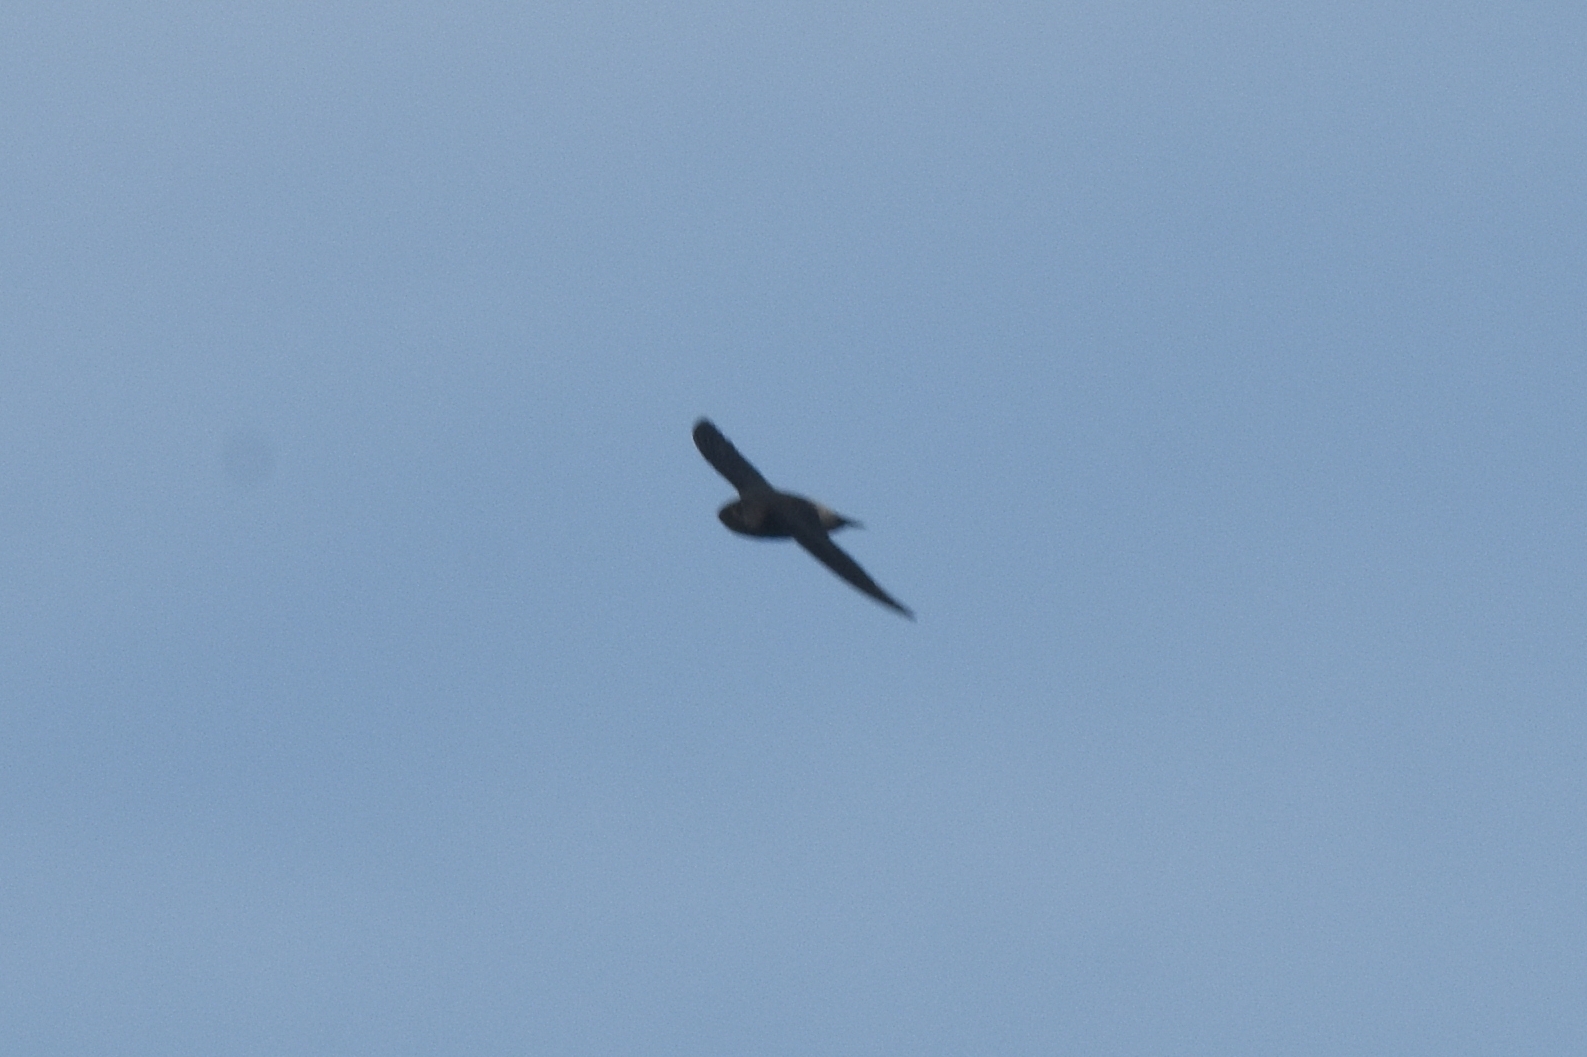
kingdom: Animalia
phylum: Chordata
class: Aves
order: Apodiformes
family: Apodidae
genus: Chaetura
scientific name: Chaetura spinicaudus
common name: Band-rumped swift
